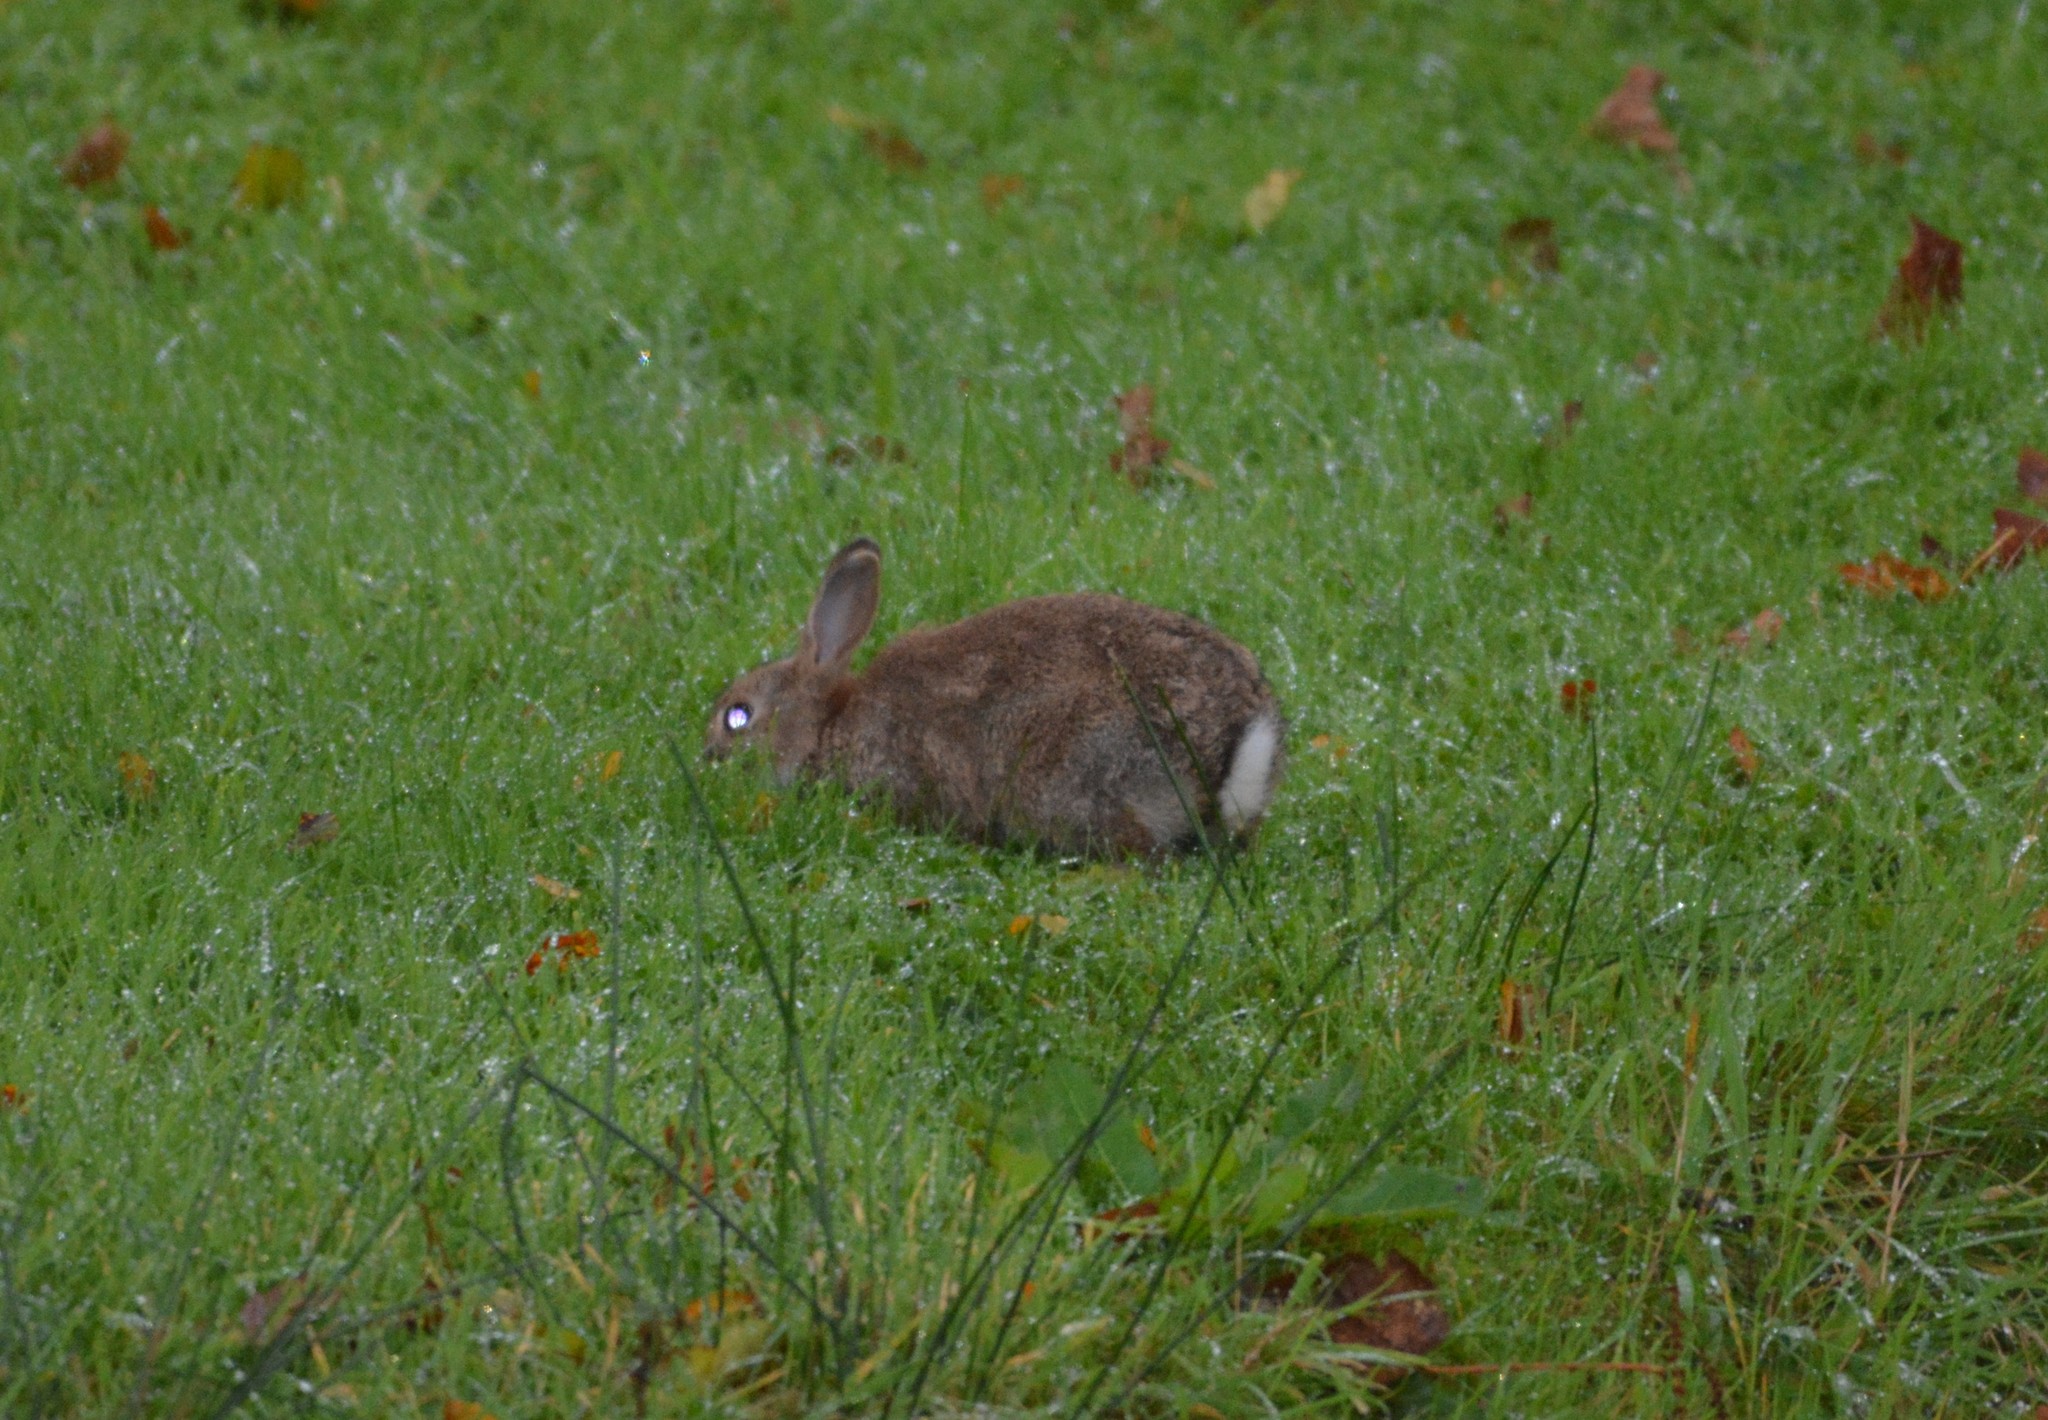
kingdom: Animalia
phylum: Chordata
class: Mammalia
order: Lagomorpha
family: Leporidae
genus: Oryctolagus
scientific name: Oryctolagus cuniculus
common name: European rabbit
